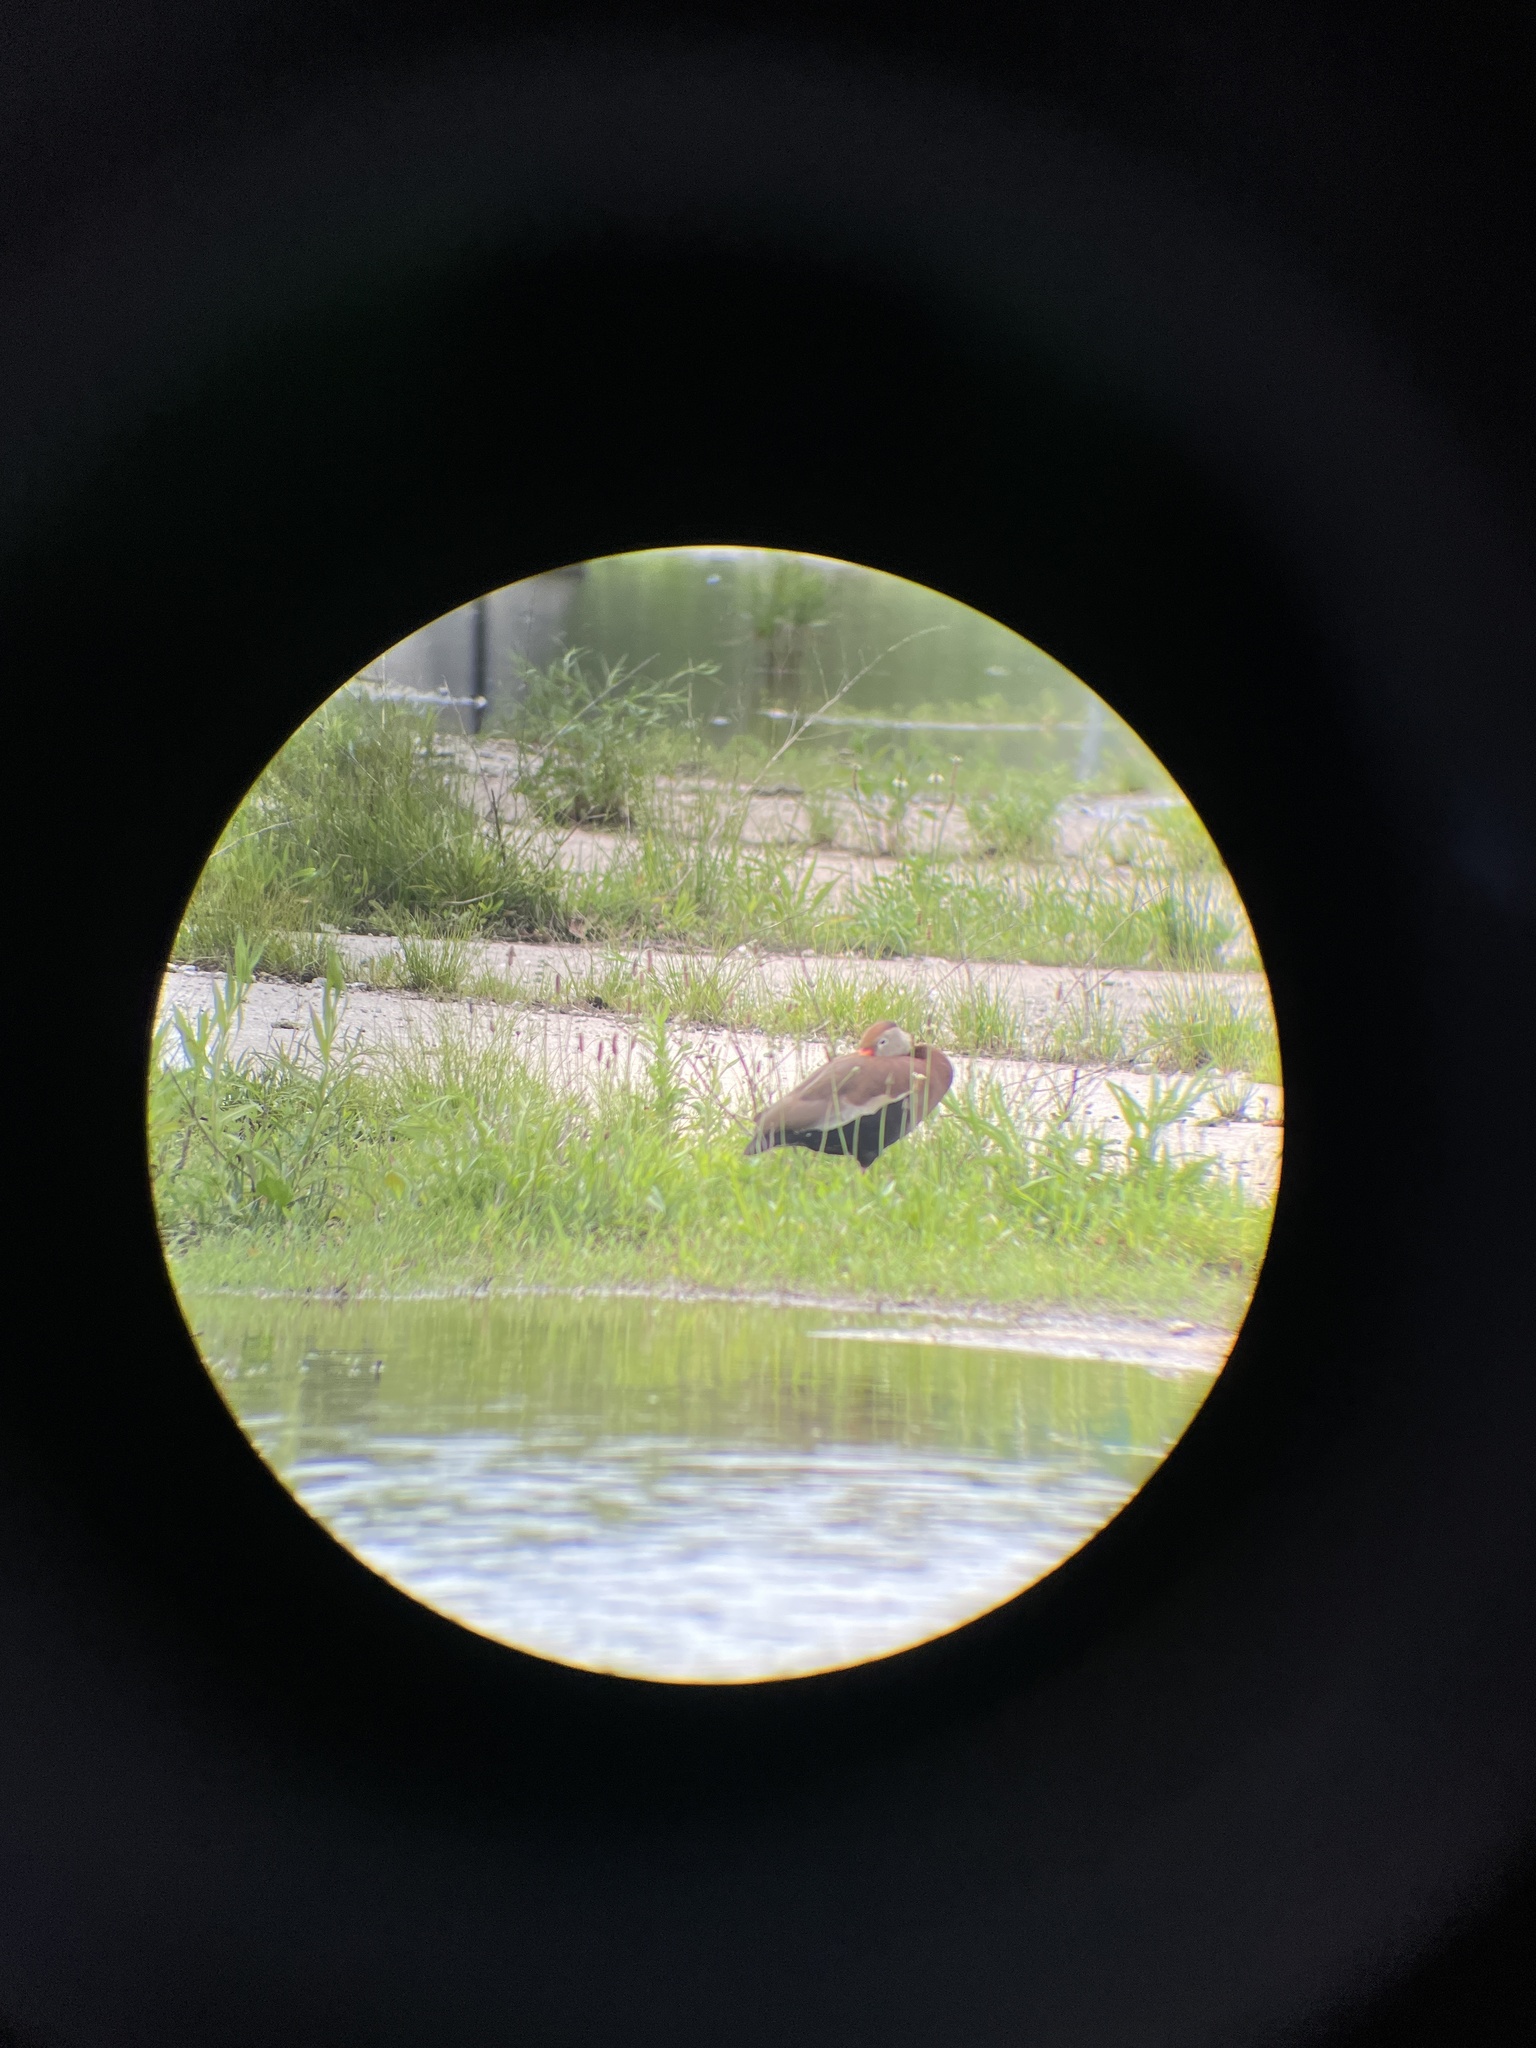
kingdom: Animalia
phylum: Chordata
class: Aves
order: Anseriformes
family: Anatidae
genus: Dendrocygna
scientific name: Dendrocygna autumnalis
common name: Black-bellied whistling duck
